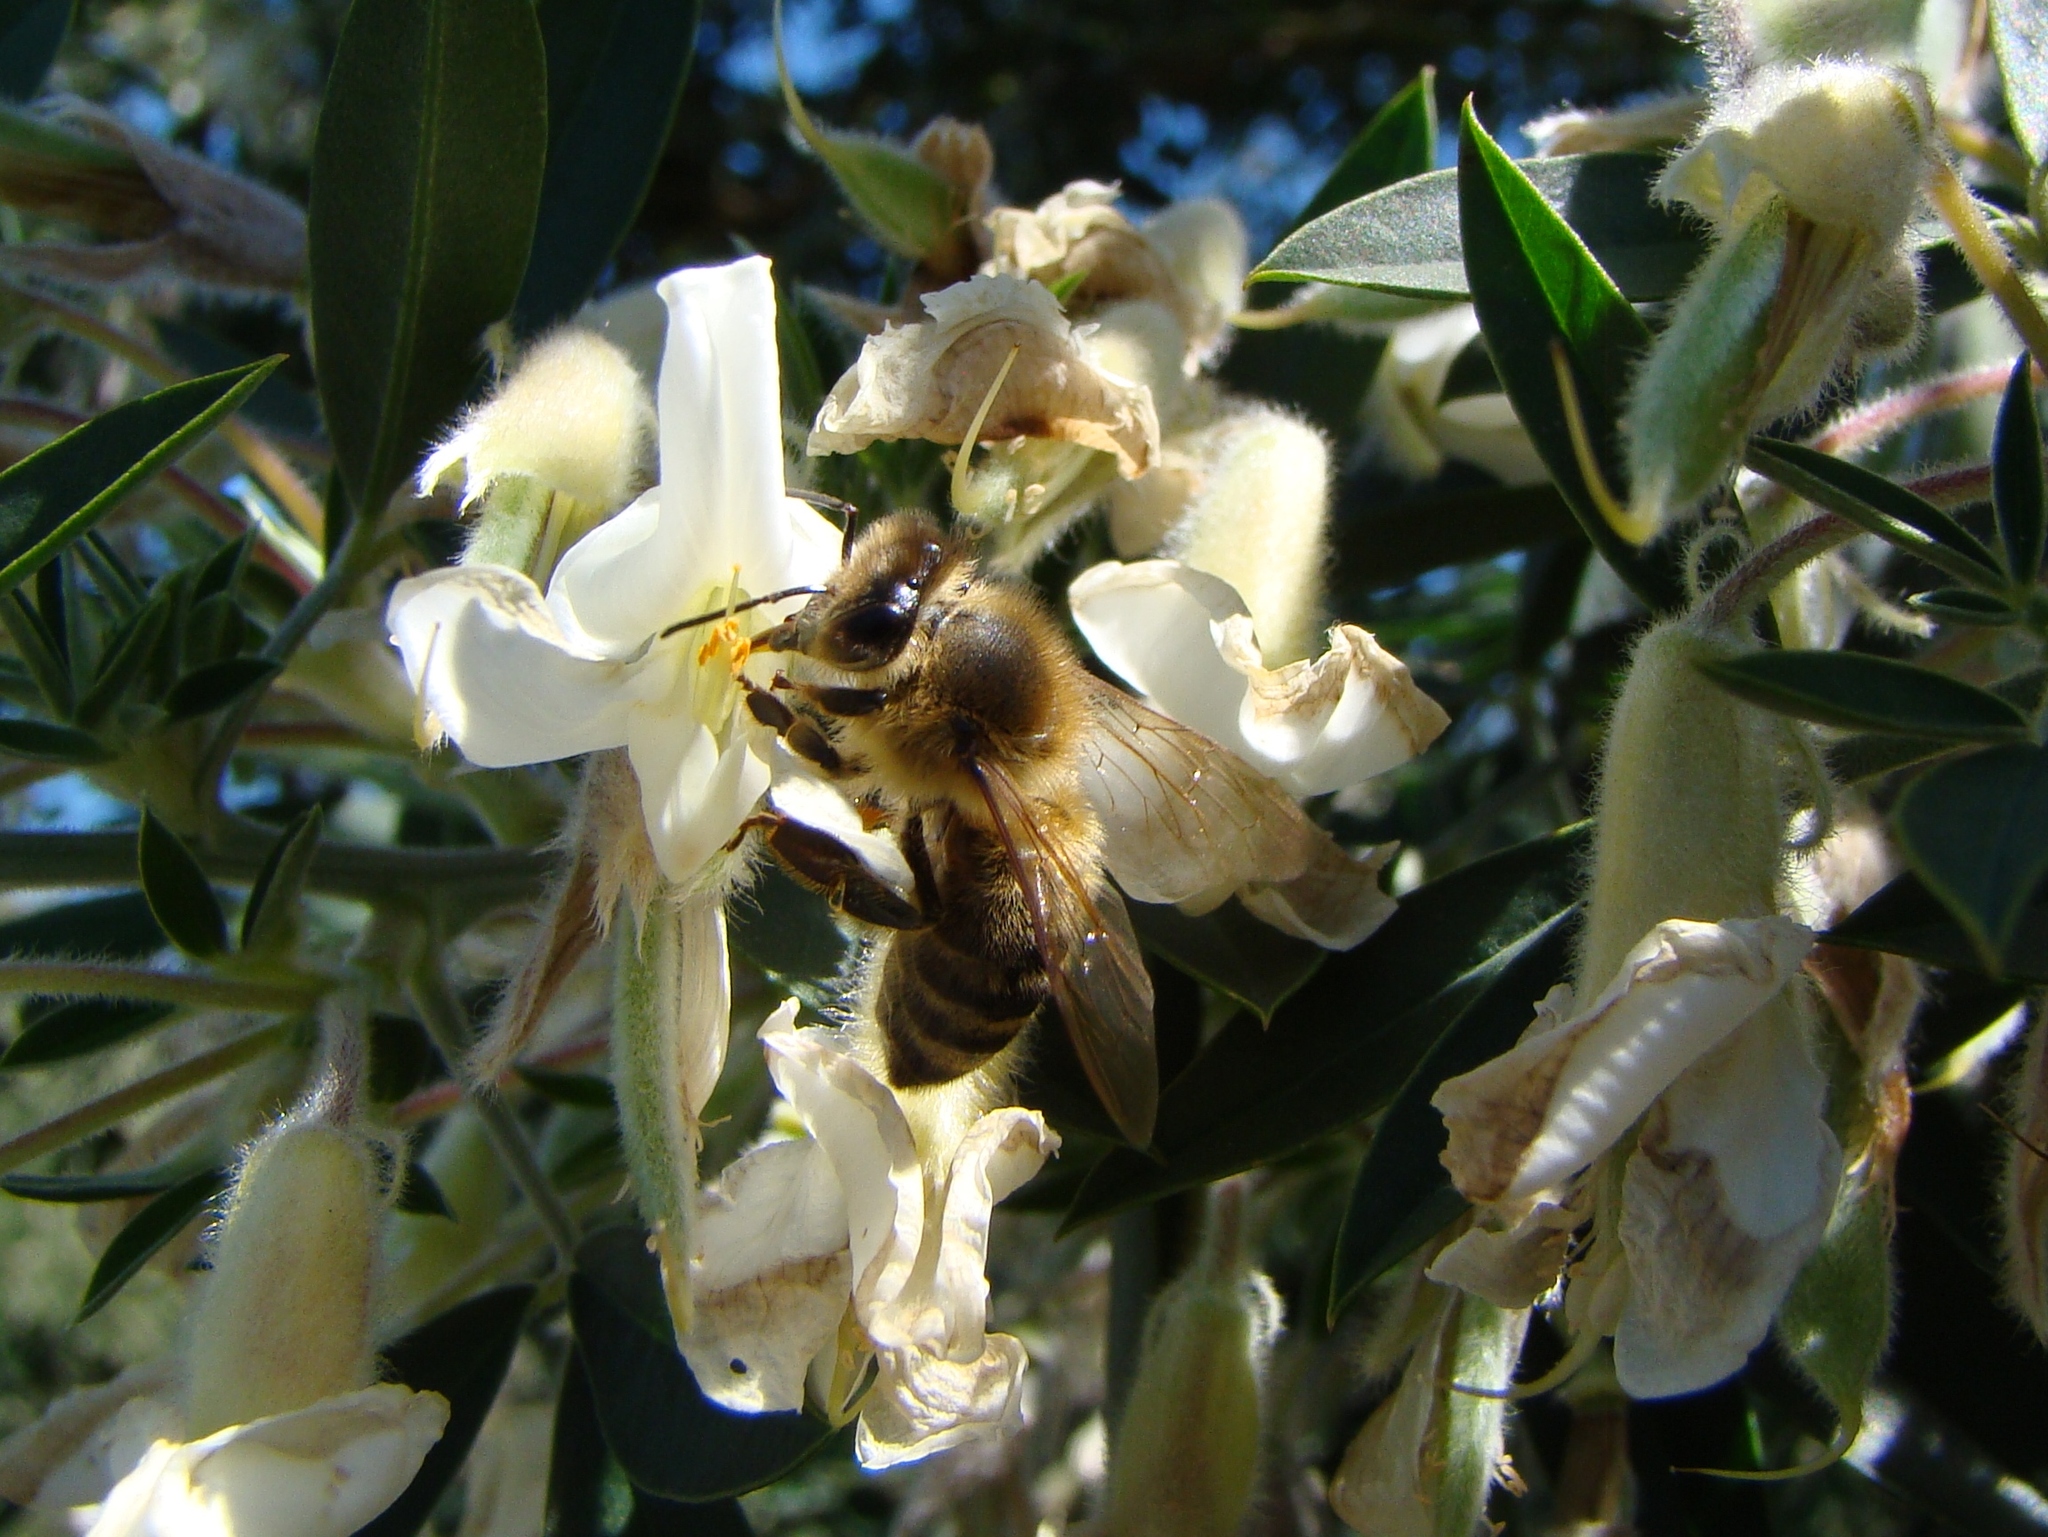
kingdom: Animalia
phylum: Arthropoda
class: Insecta
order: Hymenoptera
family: Apidae
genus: Apis
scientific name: Apis mellifera
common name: Honey bee
